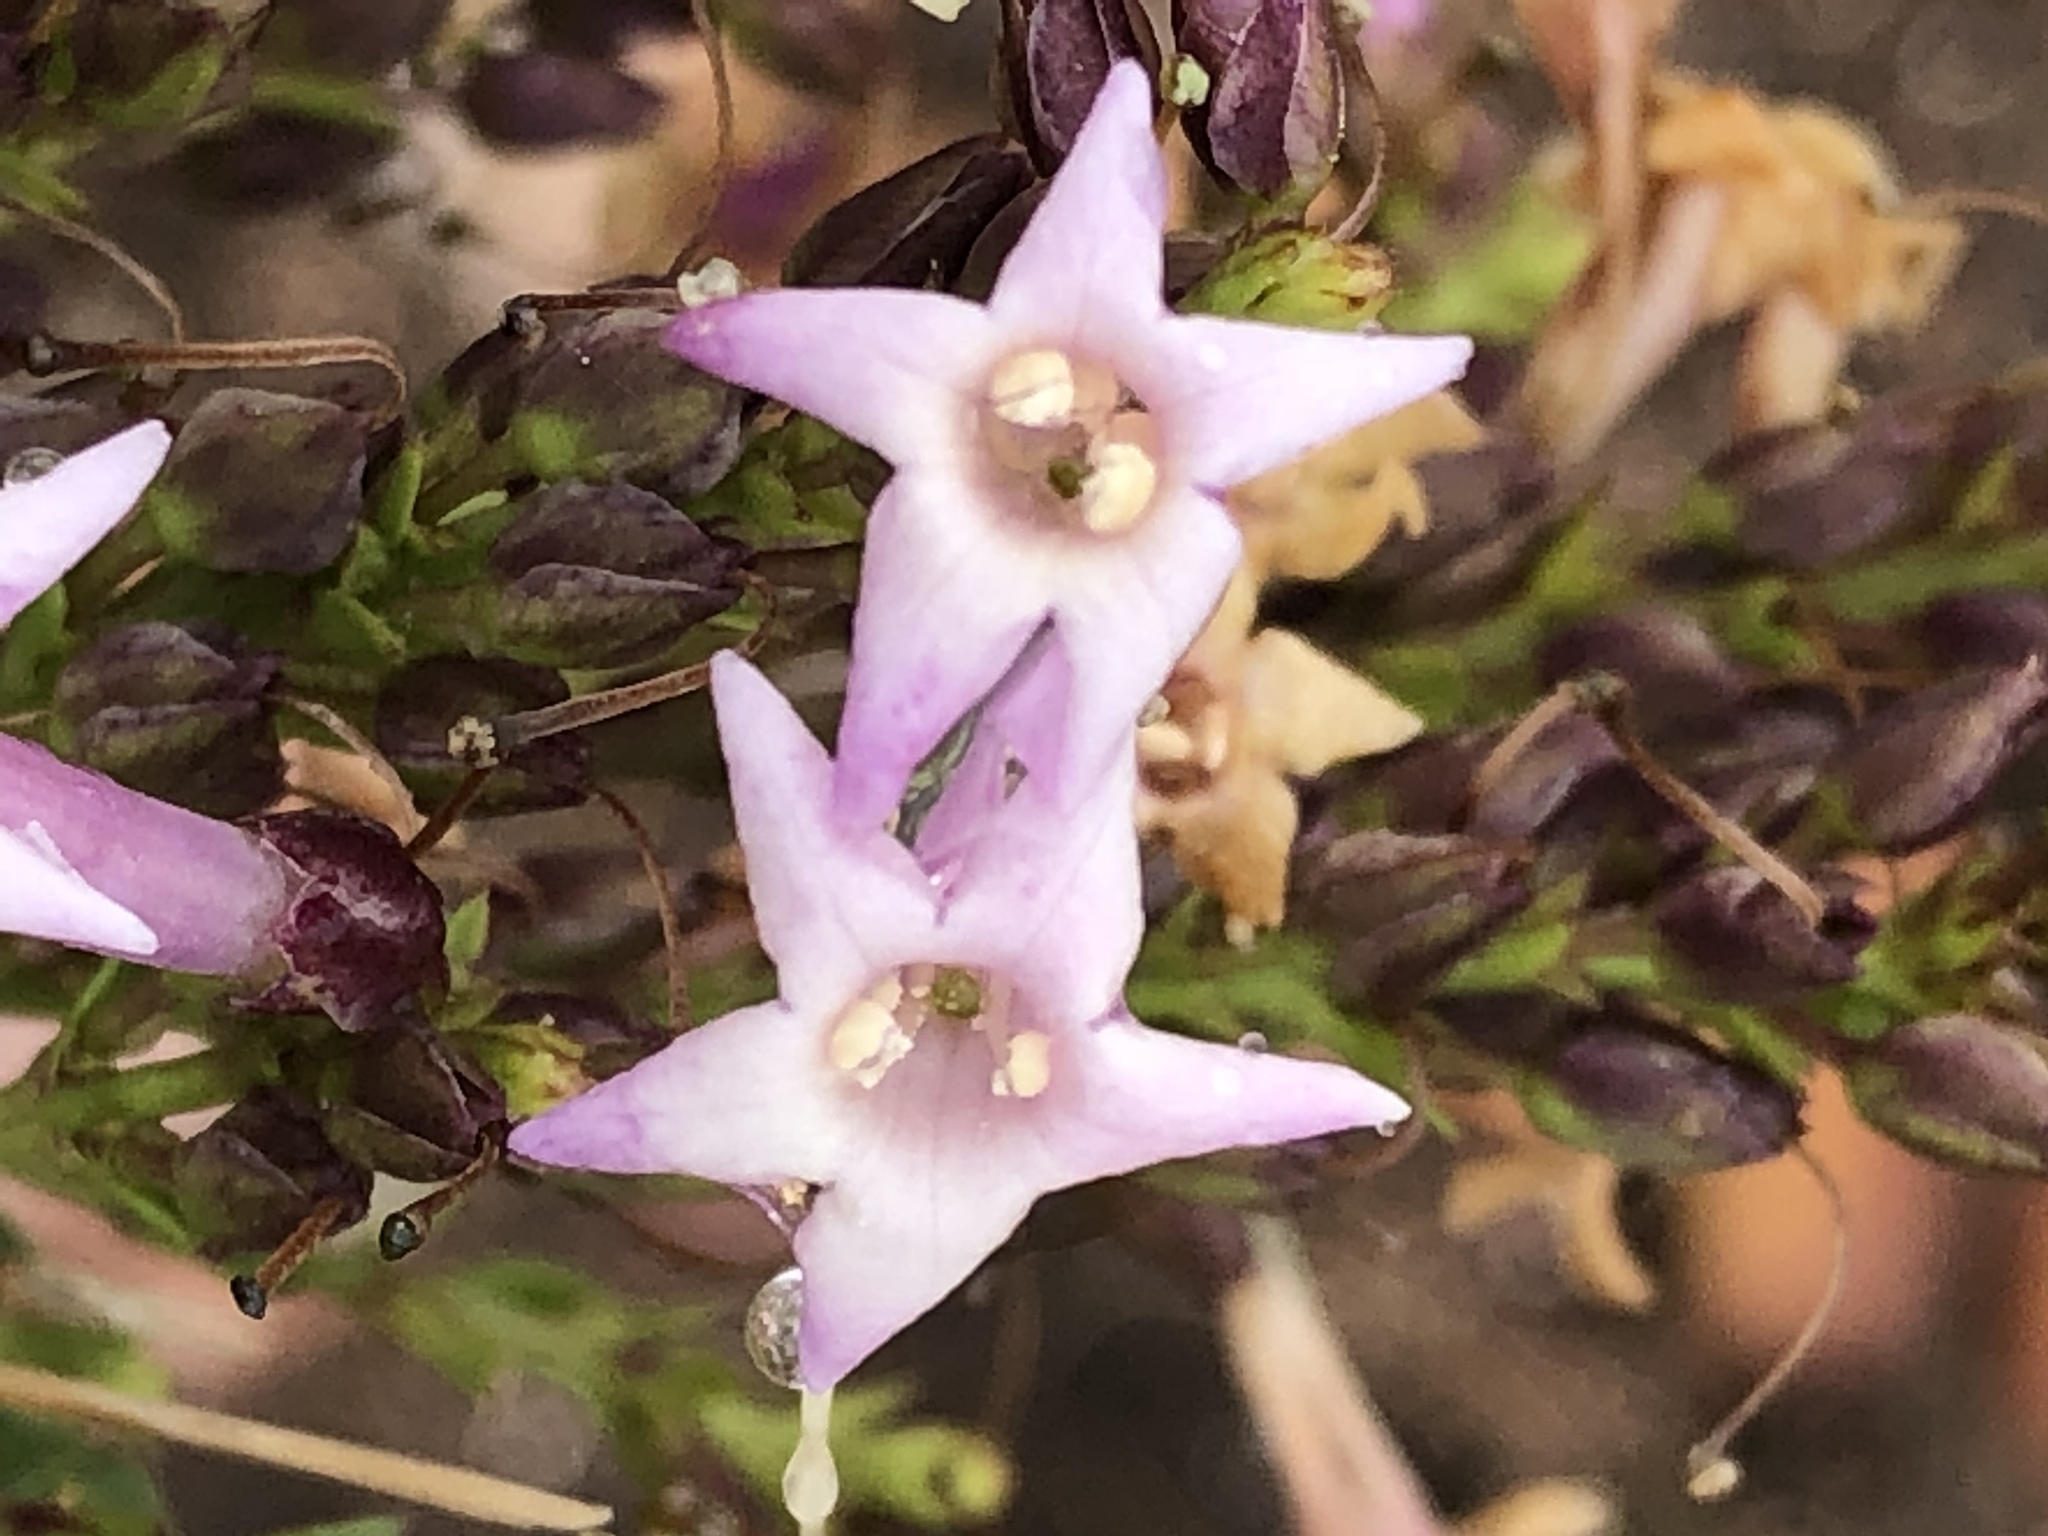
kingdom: Plantae
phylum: Tracheophyta
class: Magnoliopsida
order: Lamiales
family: Scrophulariaceae
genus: Freylinia
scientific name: Freylinia densiflora
